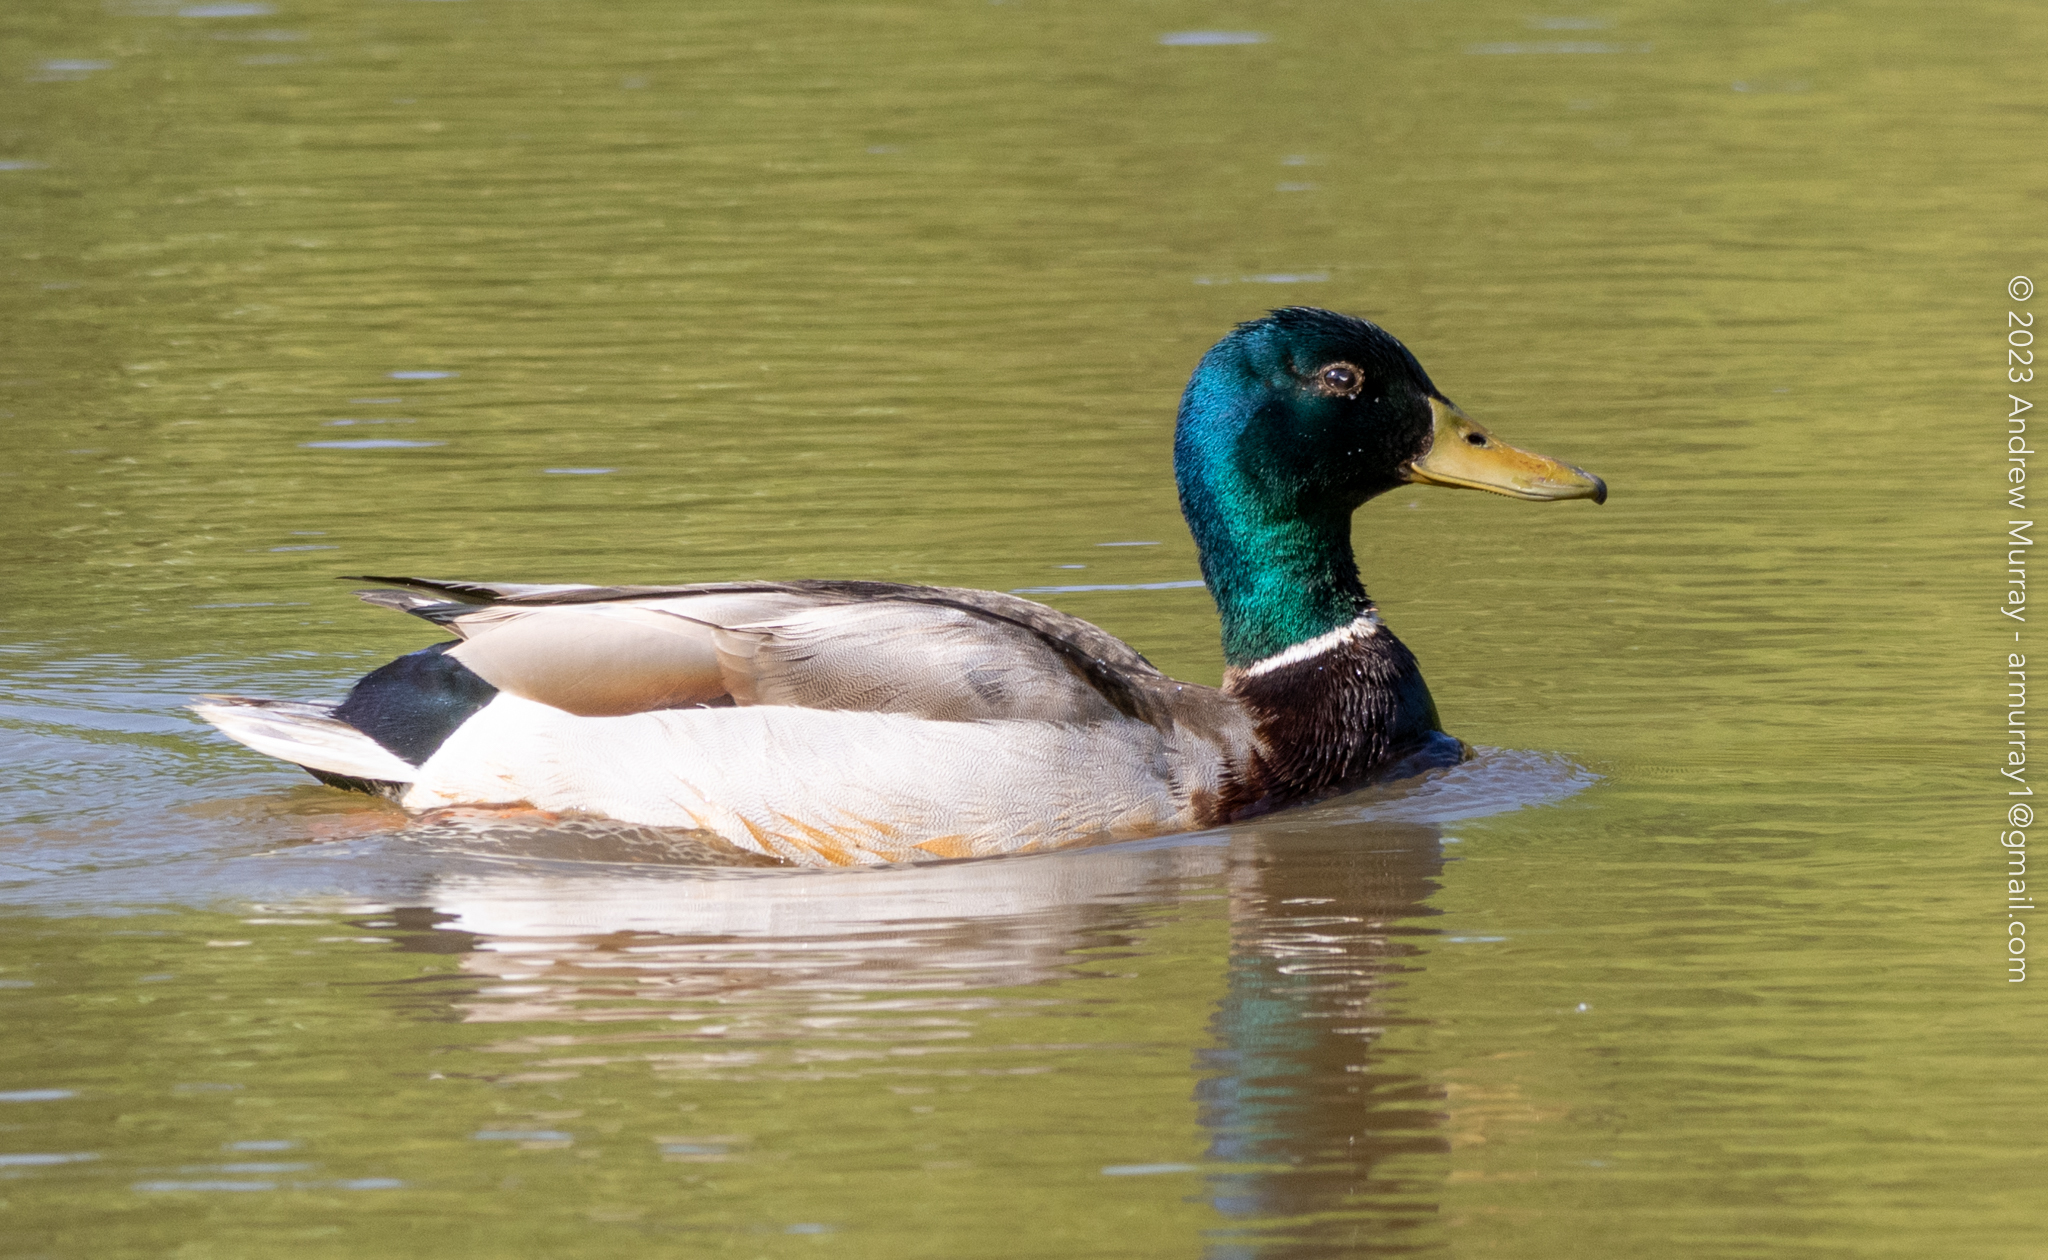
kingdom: Animalia
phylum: Chordata
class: Aves
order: Anseriformes
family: Anatidae
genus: Anas
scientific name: Anas platyrhynchos
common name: Mallard
